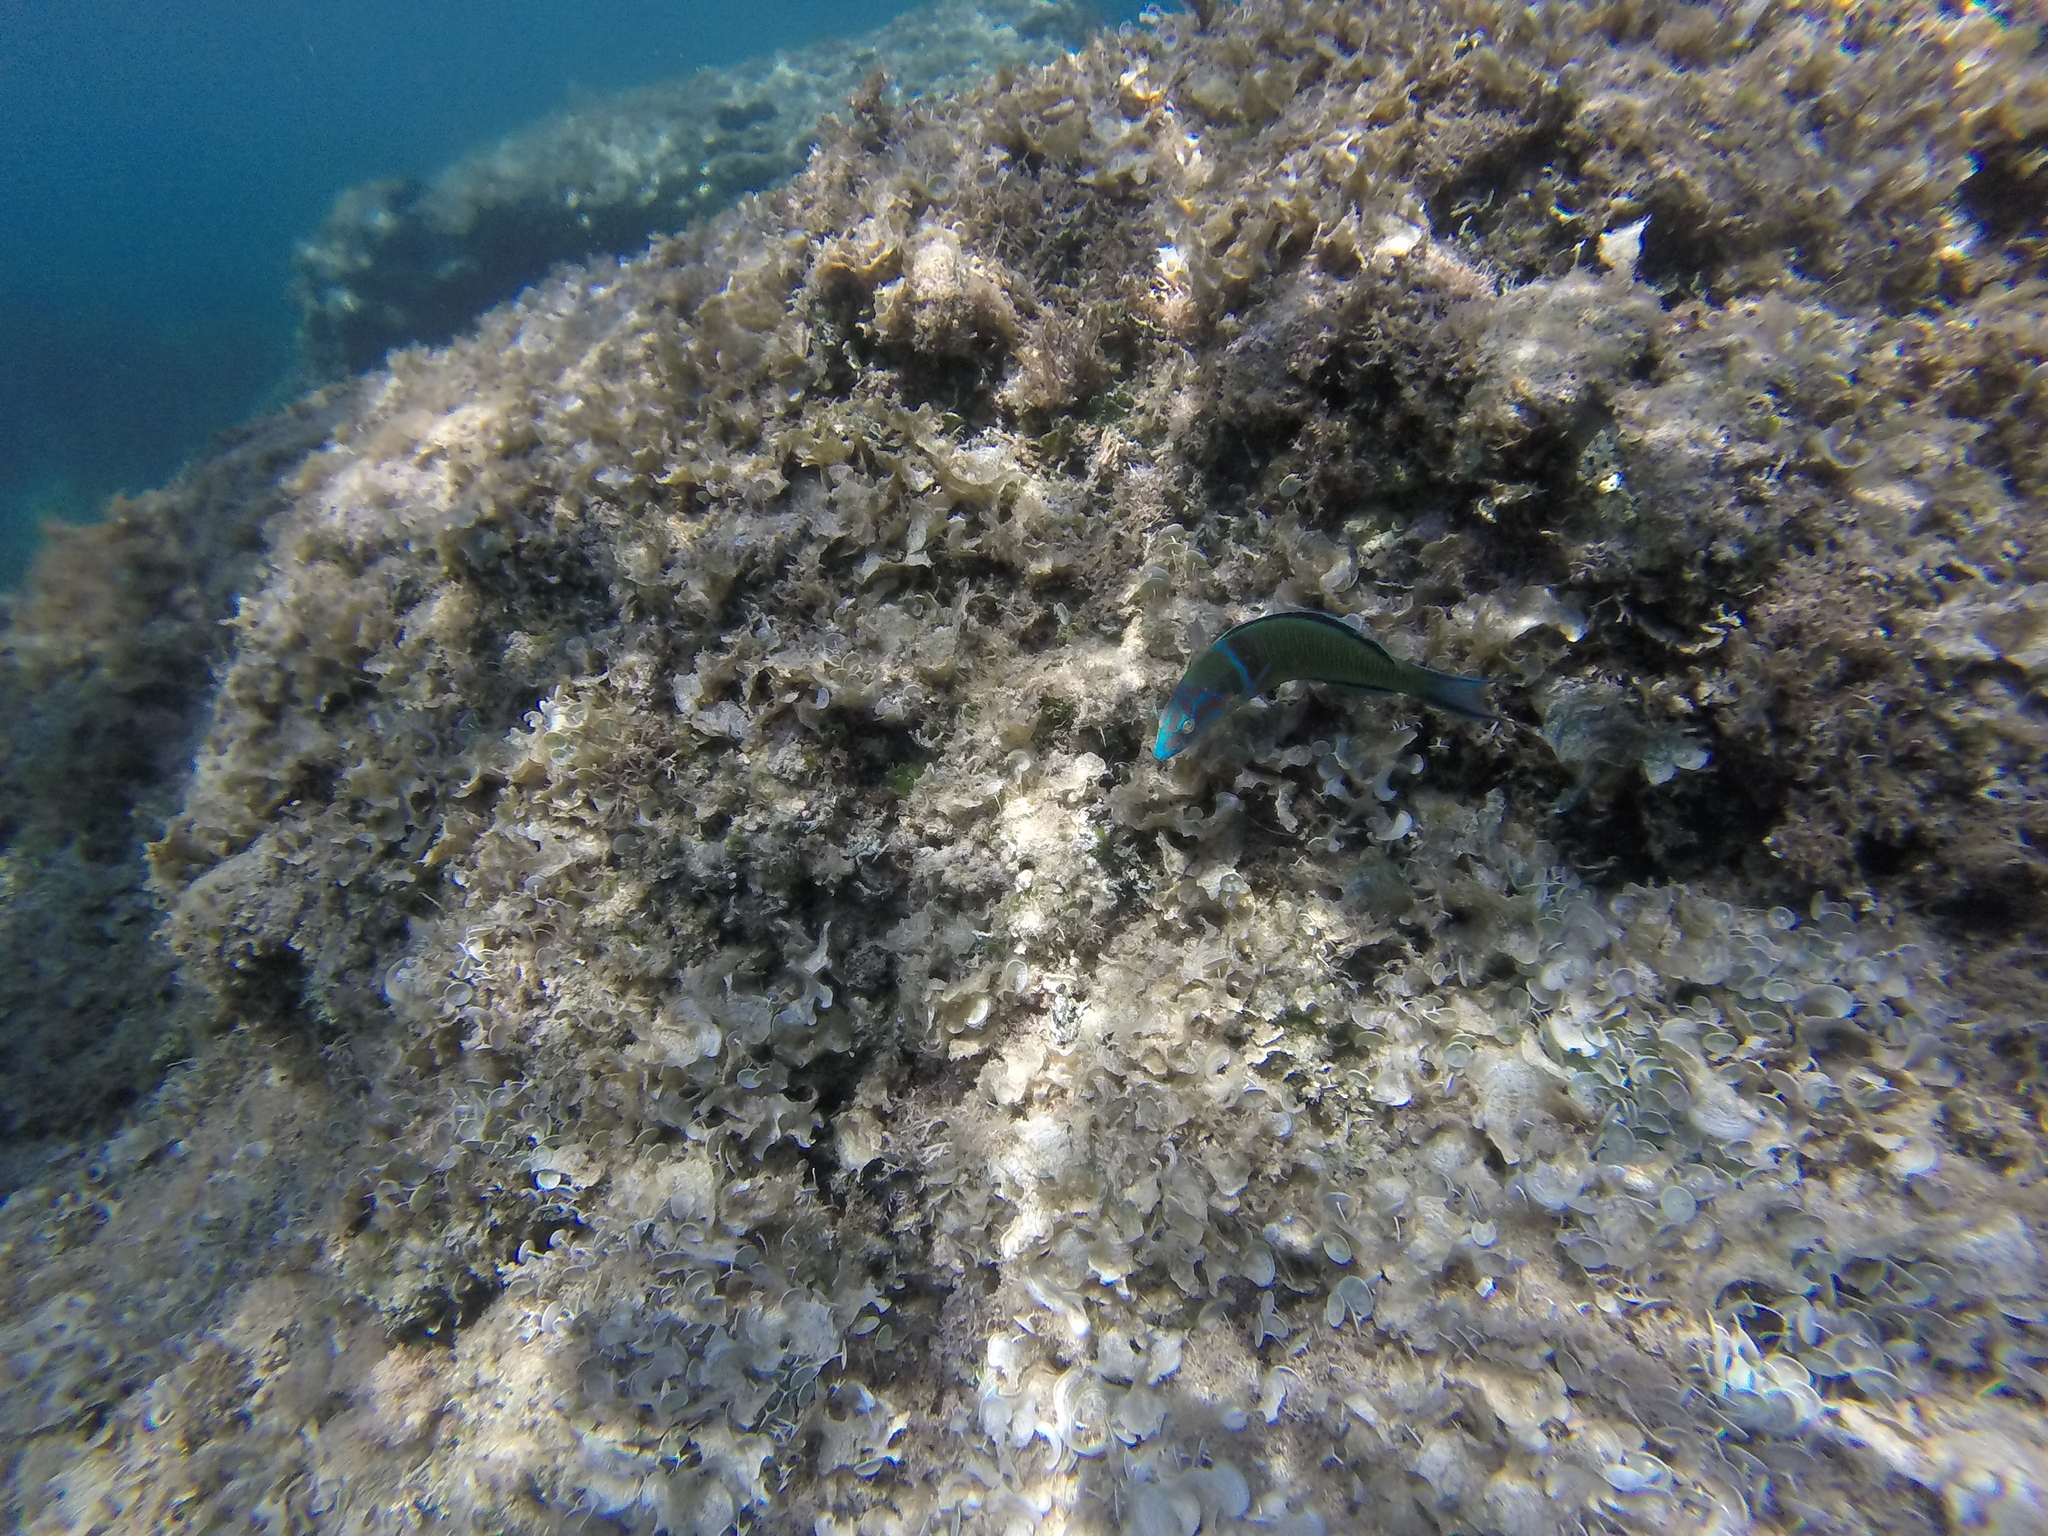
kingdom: Animalia
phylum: Chordata
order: Perciformes
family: Labridae
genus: Thalassoma
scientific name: Thalassoma pavo
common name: Ornate wrasse
